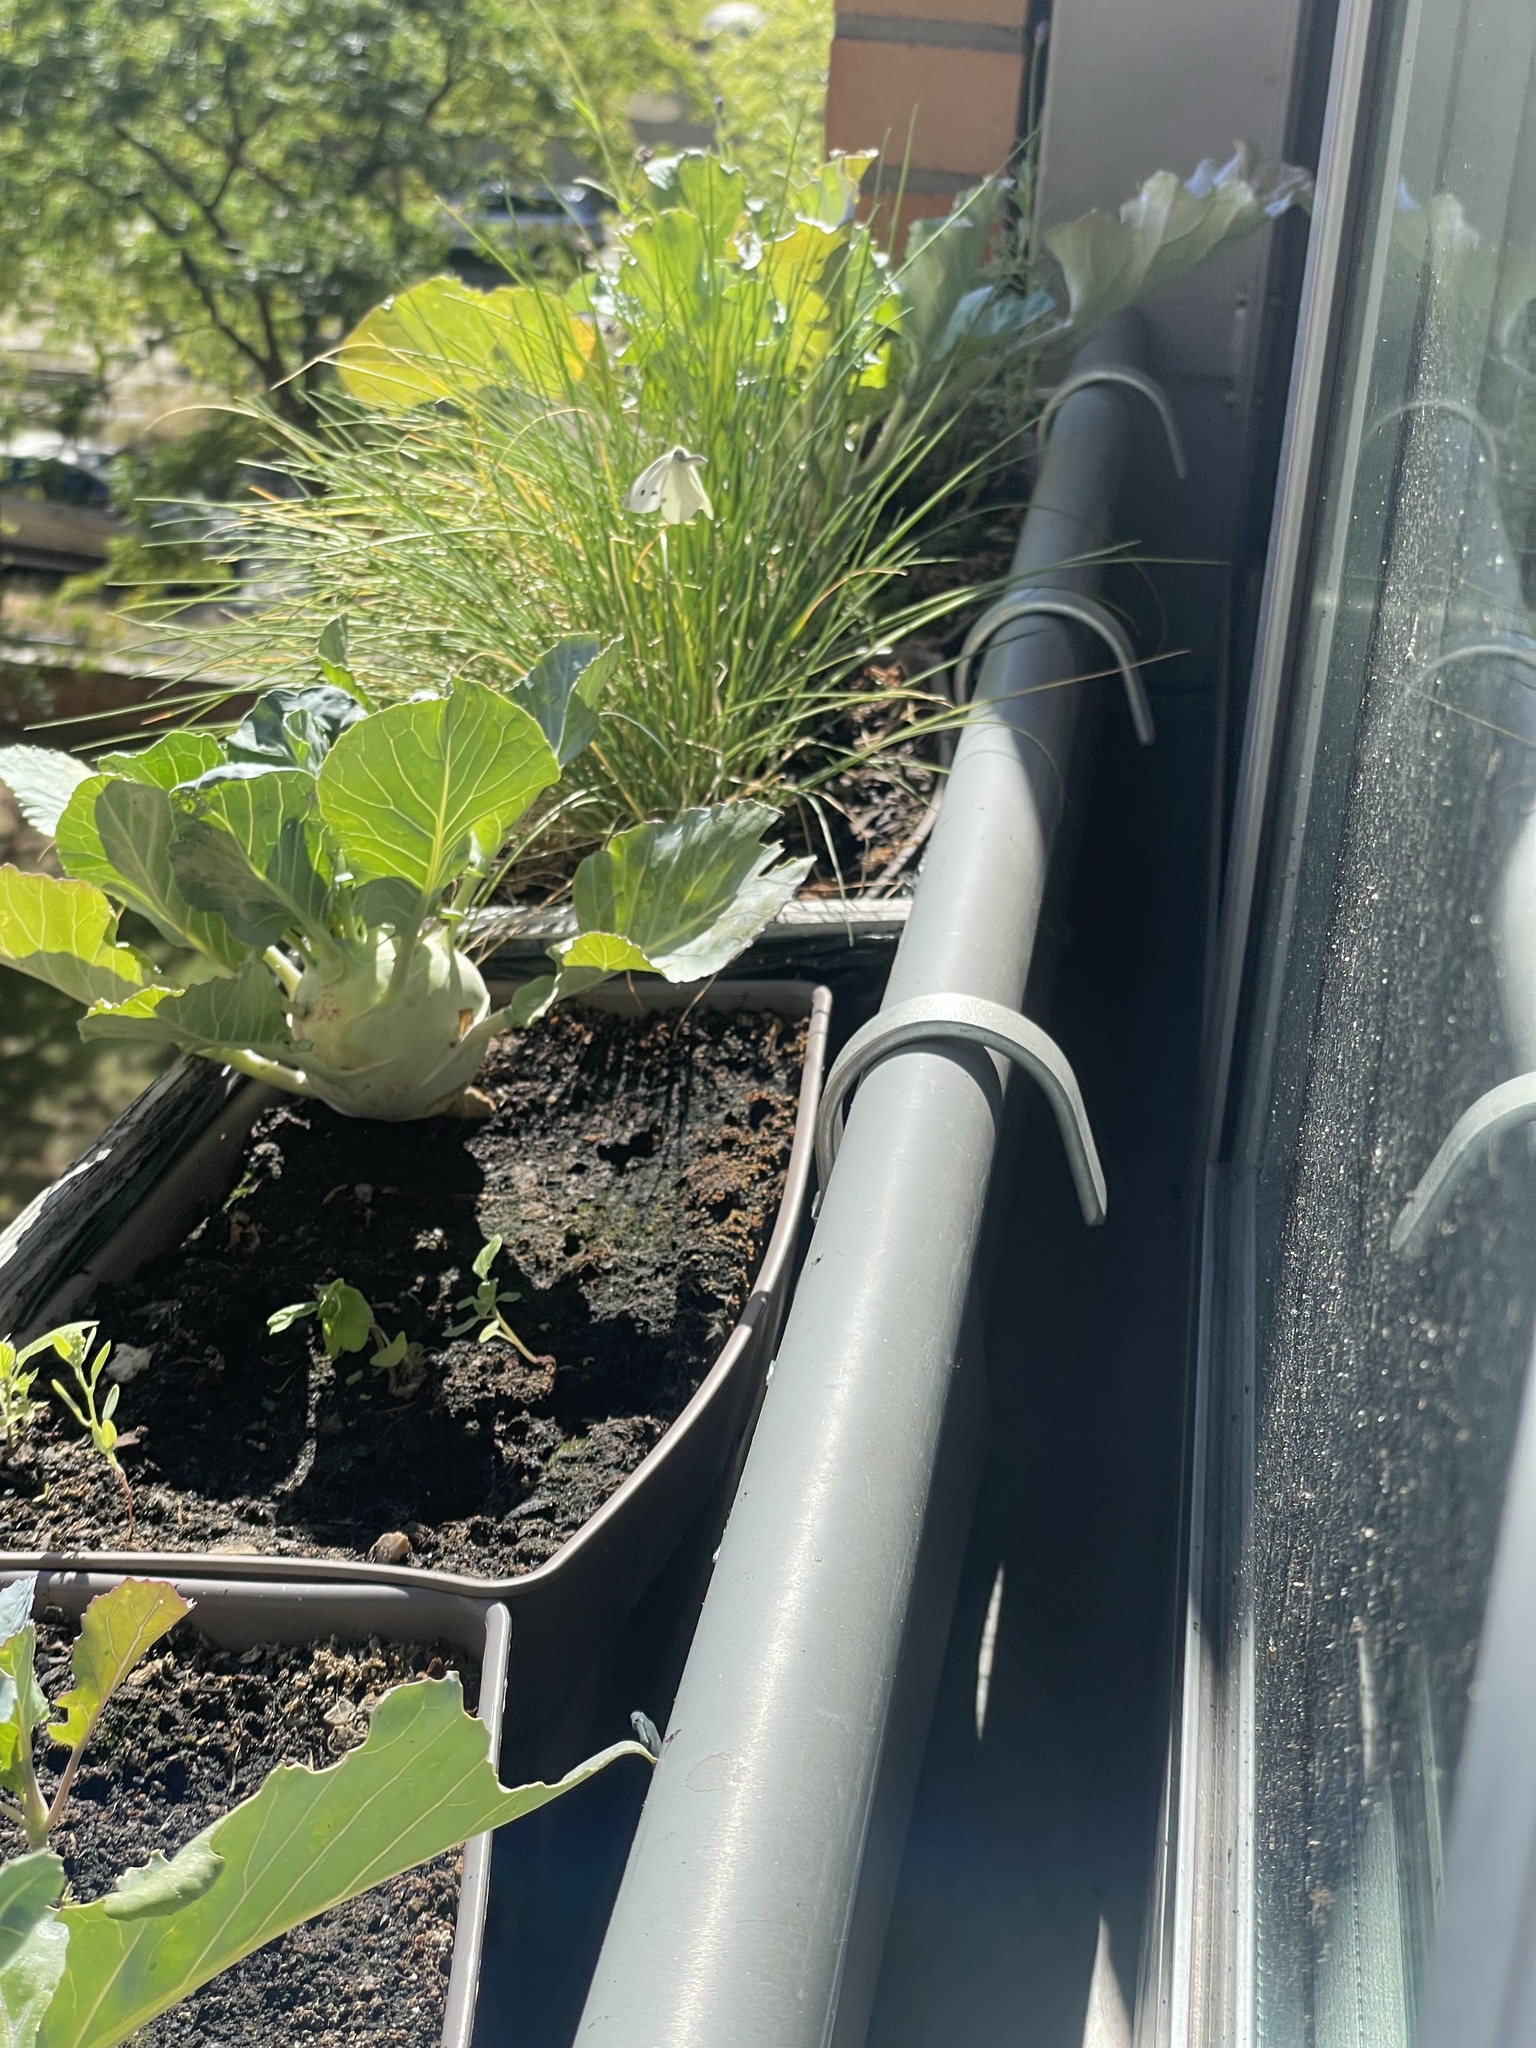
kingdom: Animalia
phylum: Arthropoda
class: Insecta
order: Lepidoptera
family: Pieridae
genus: Pieris
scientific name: Pieris rapae
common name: Small white
